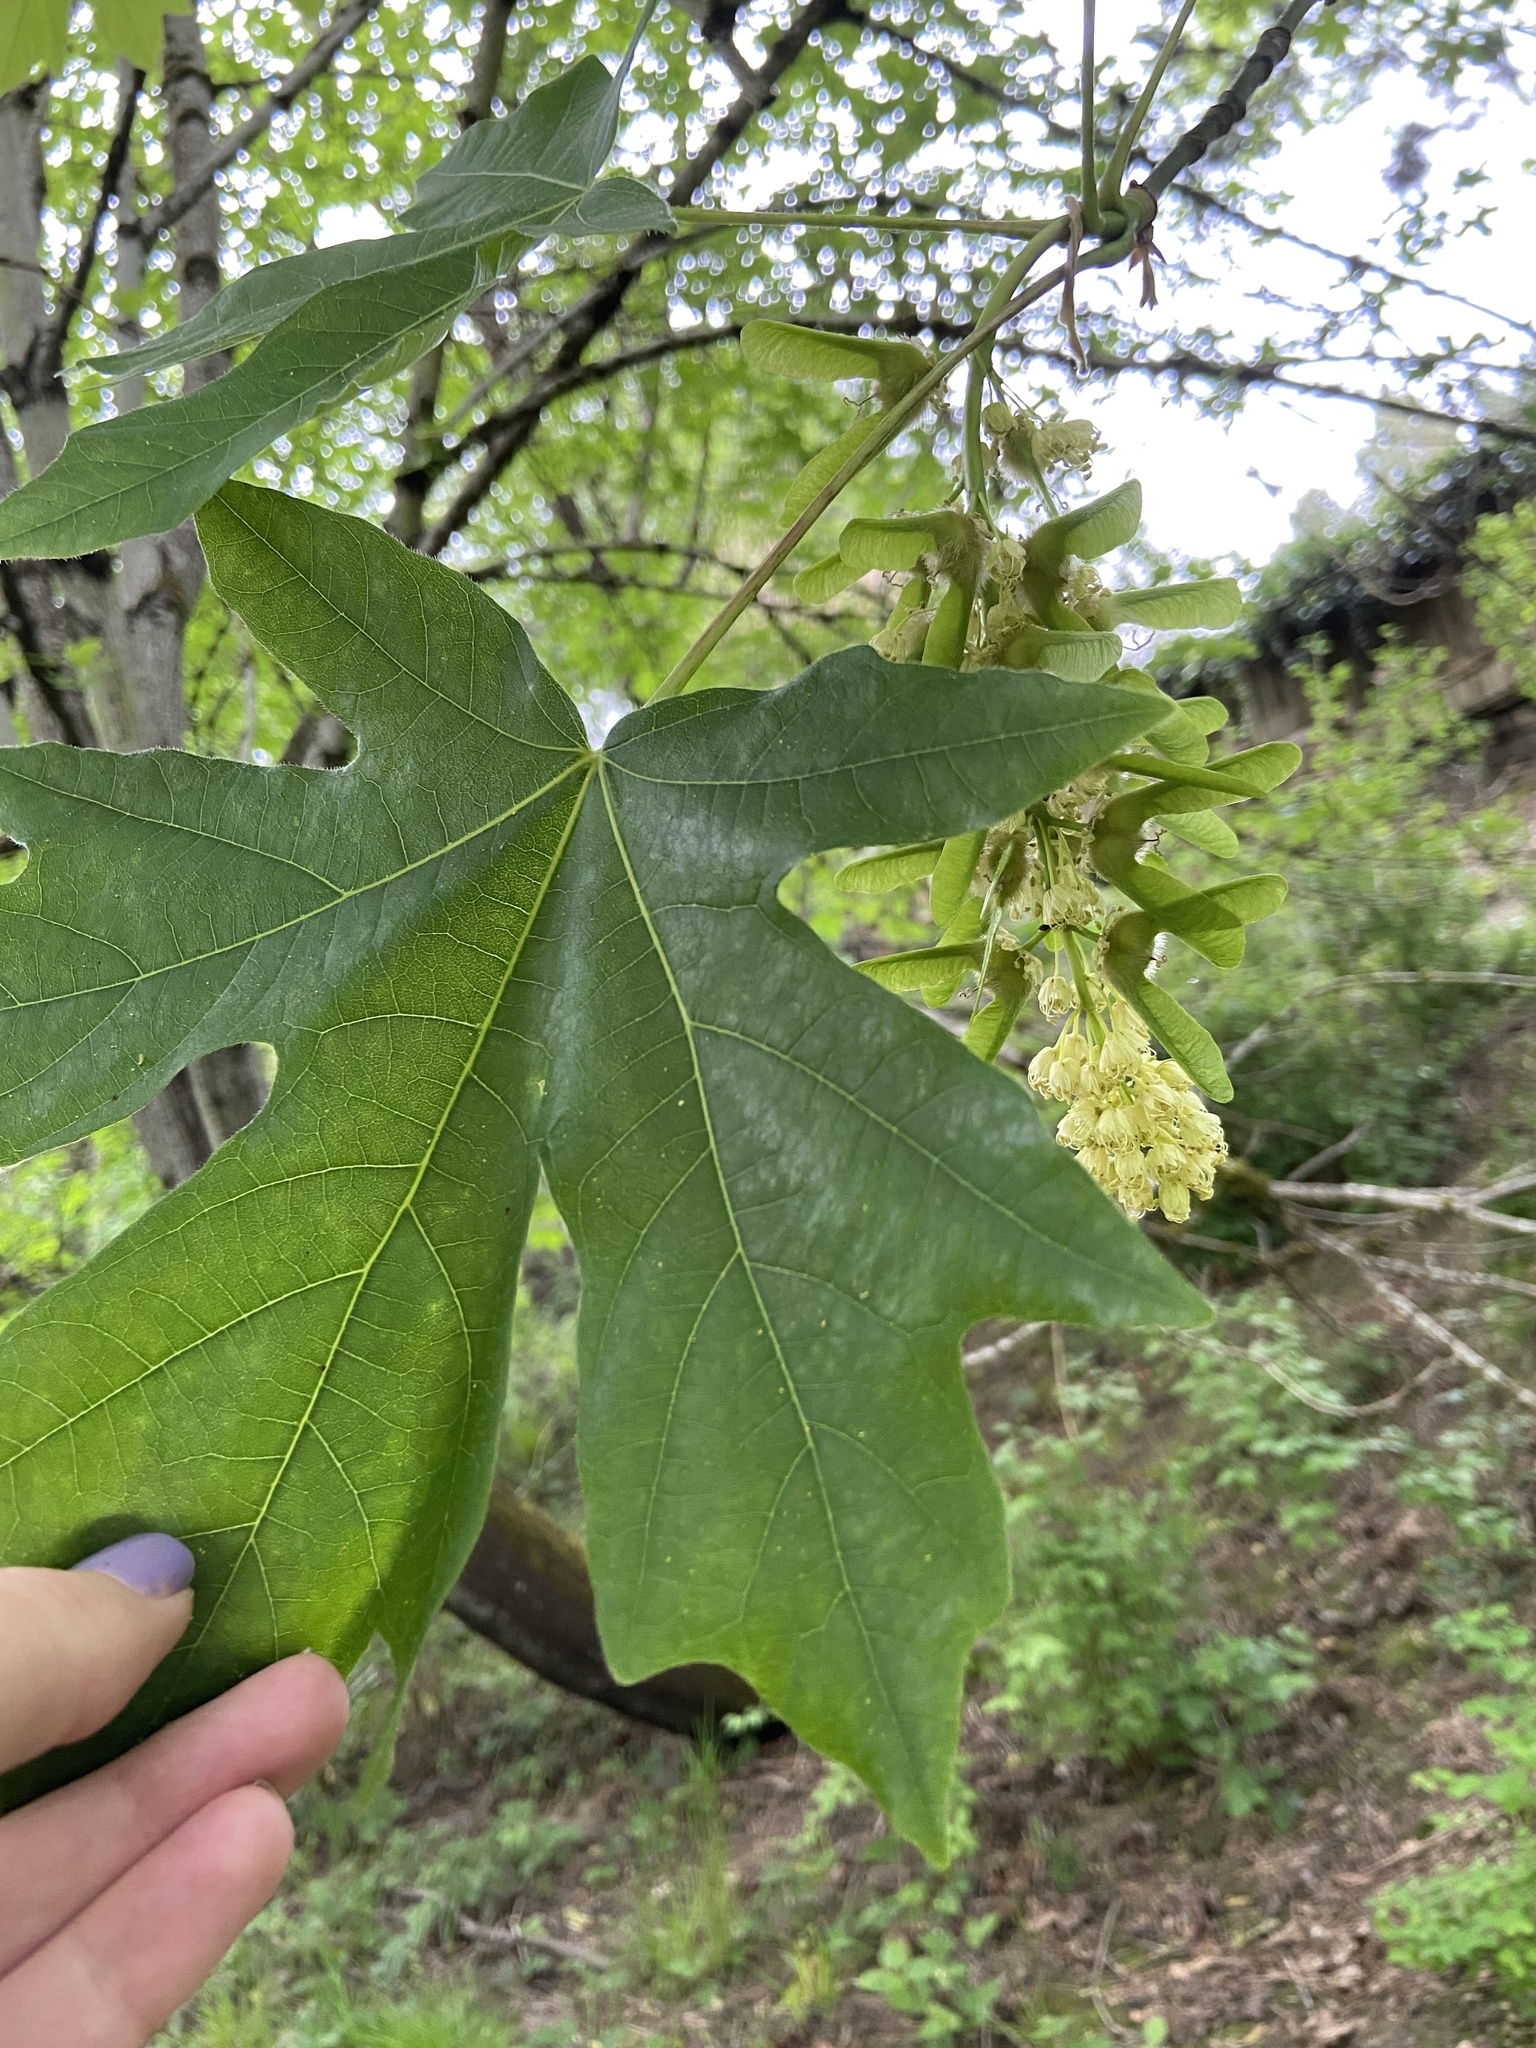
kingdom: Plantae
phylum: Tracheophyta
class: Magnoliopsida
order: Sapindales
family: Sapindaceae
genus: Acer
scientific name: Acer macrophyllum
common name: Oregon maple
